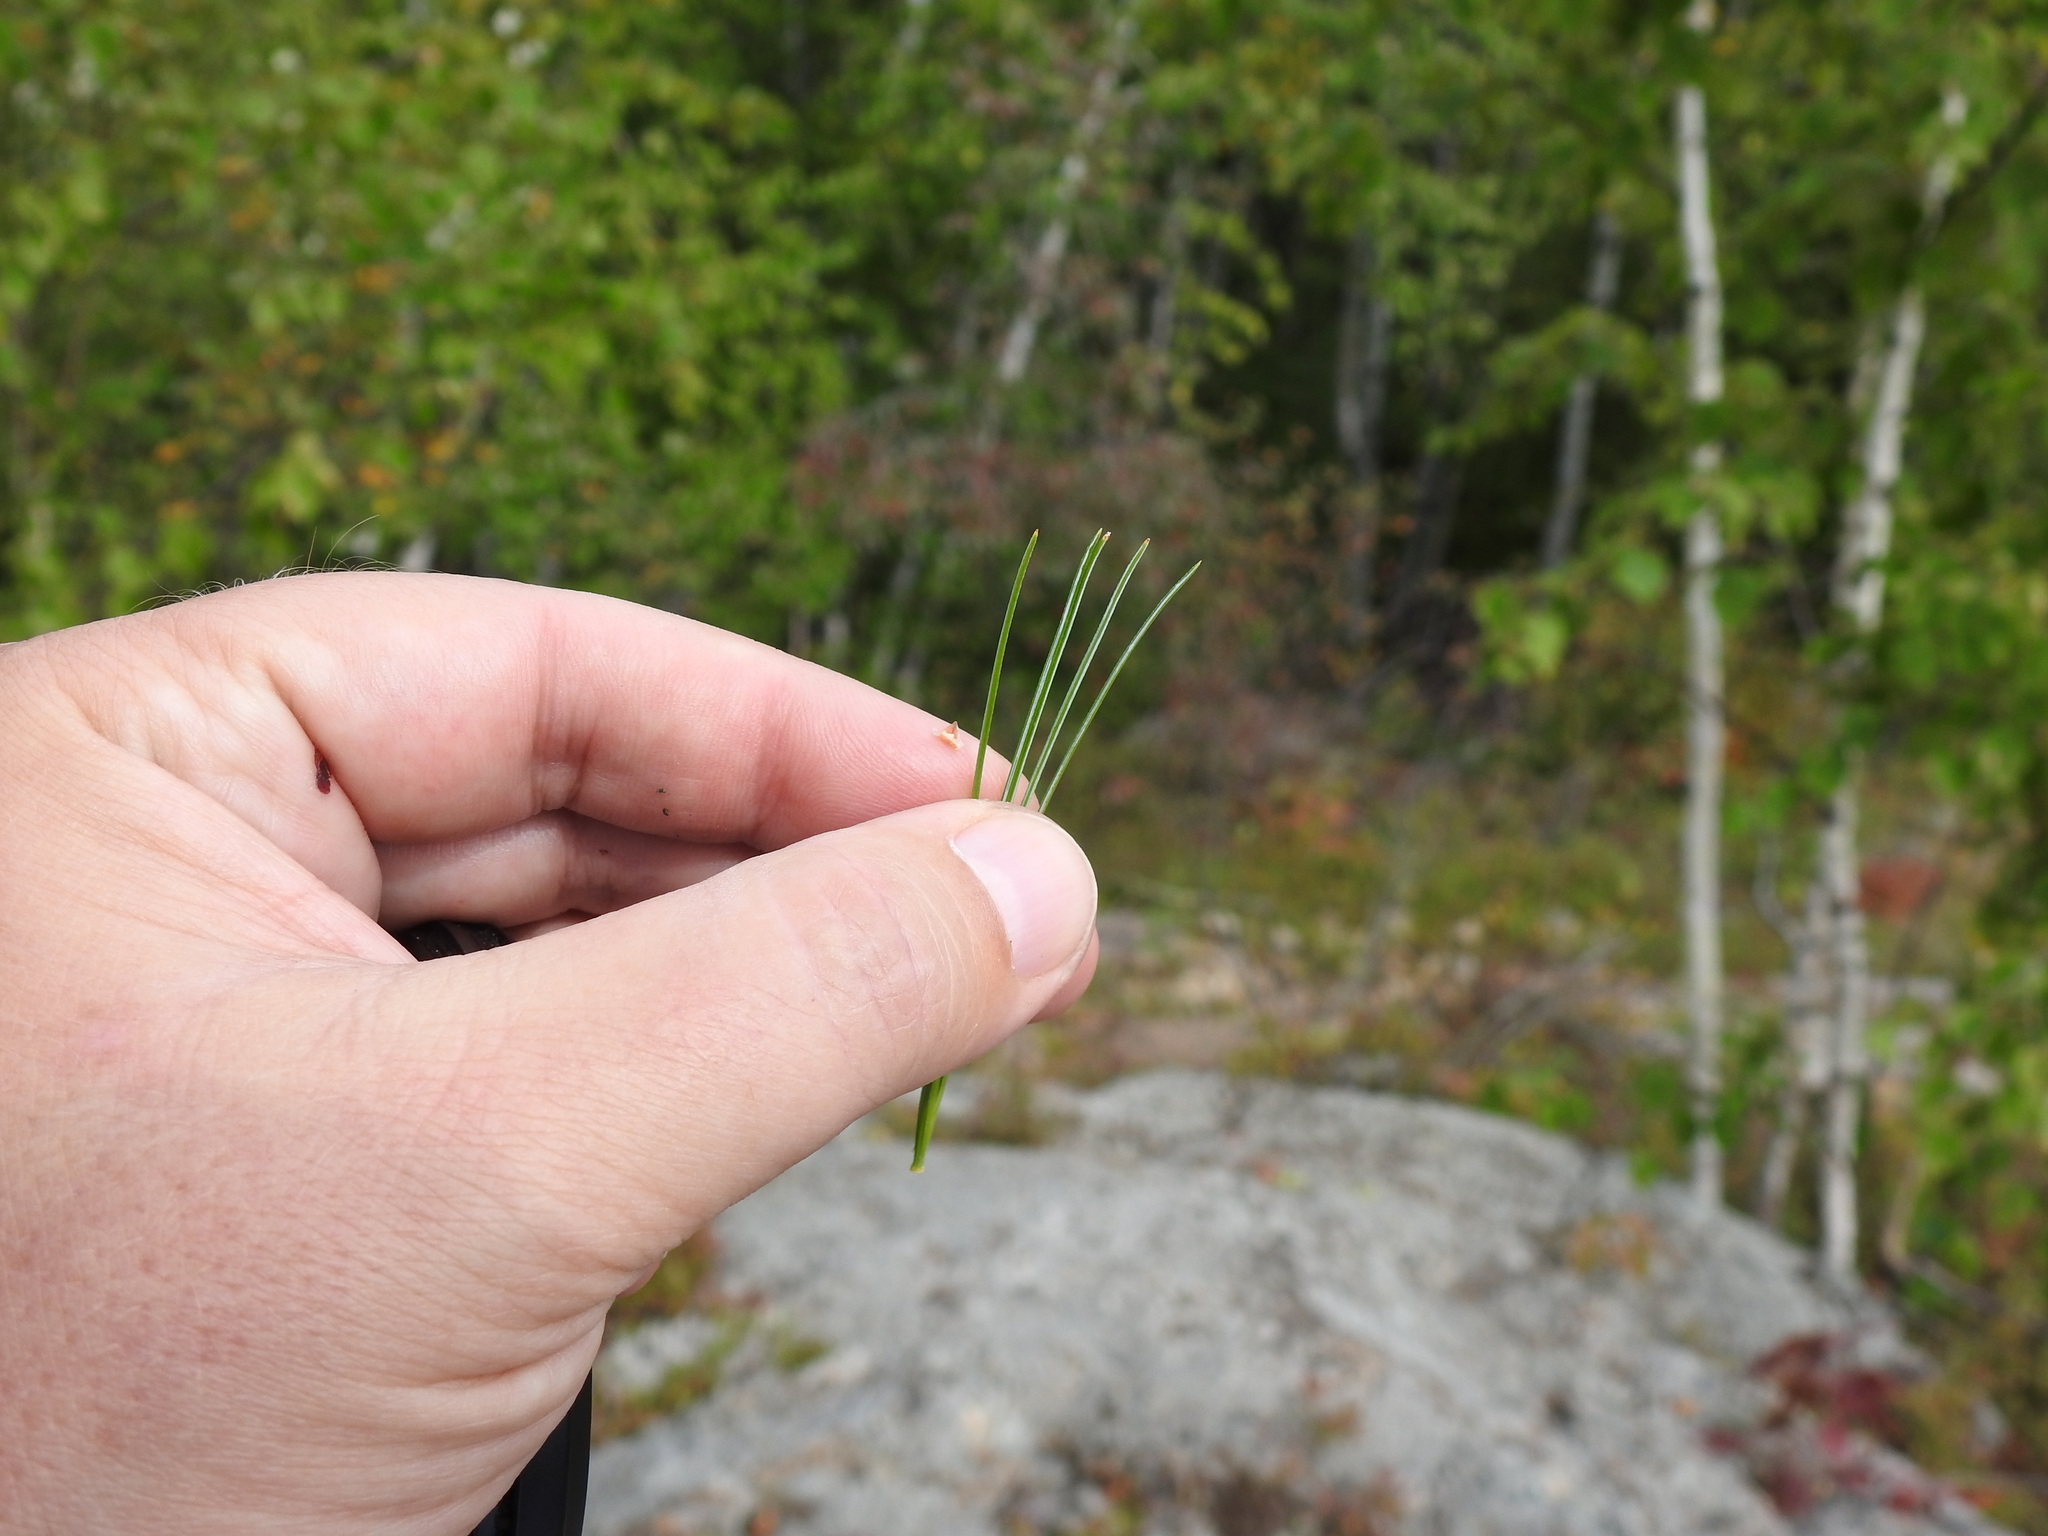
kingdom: Plantae
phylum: Tracheophyta
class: Pinopsida
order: Pinales
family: Pinaceae
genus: Pinus
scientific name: Pinus strobus
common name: Weymouth pine
